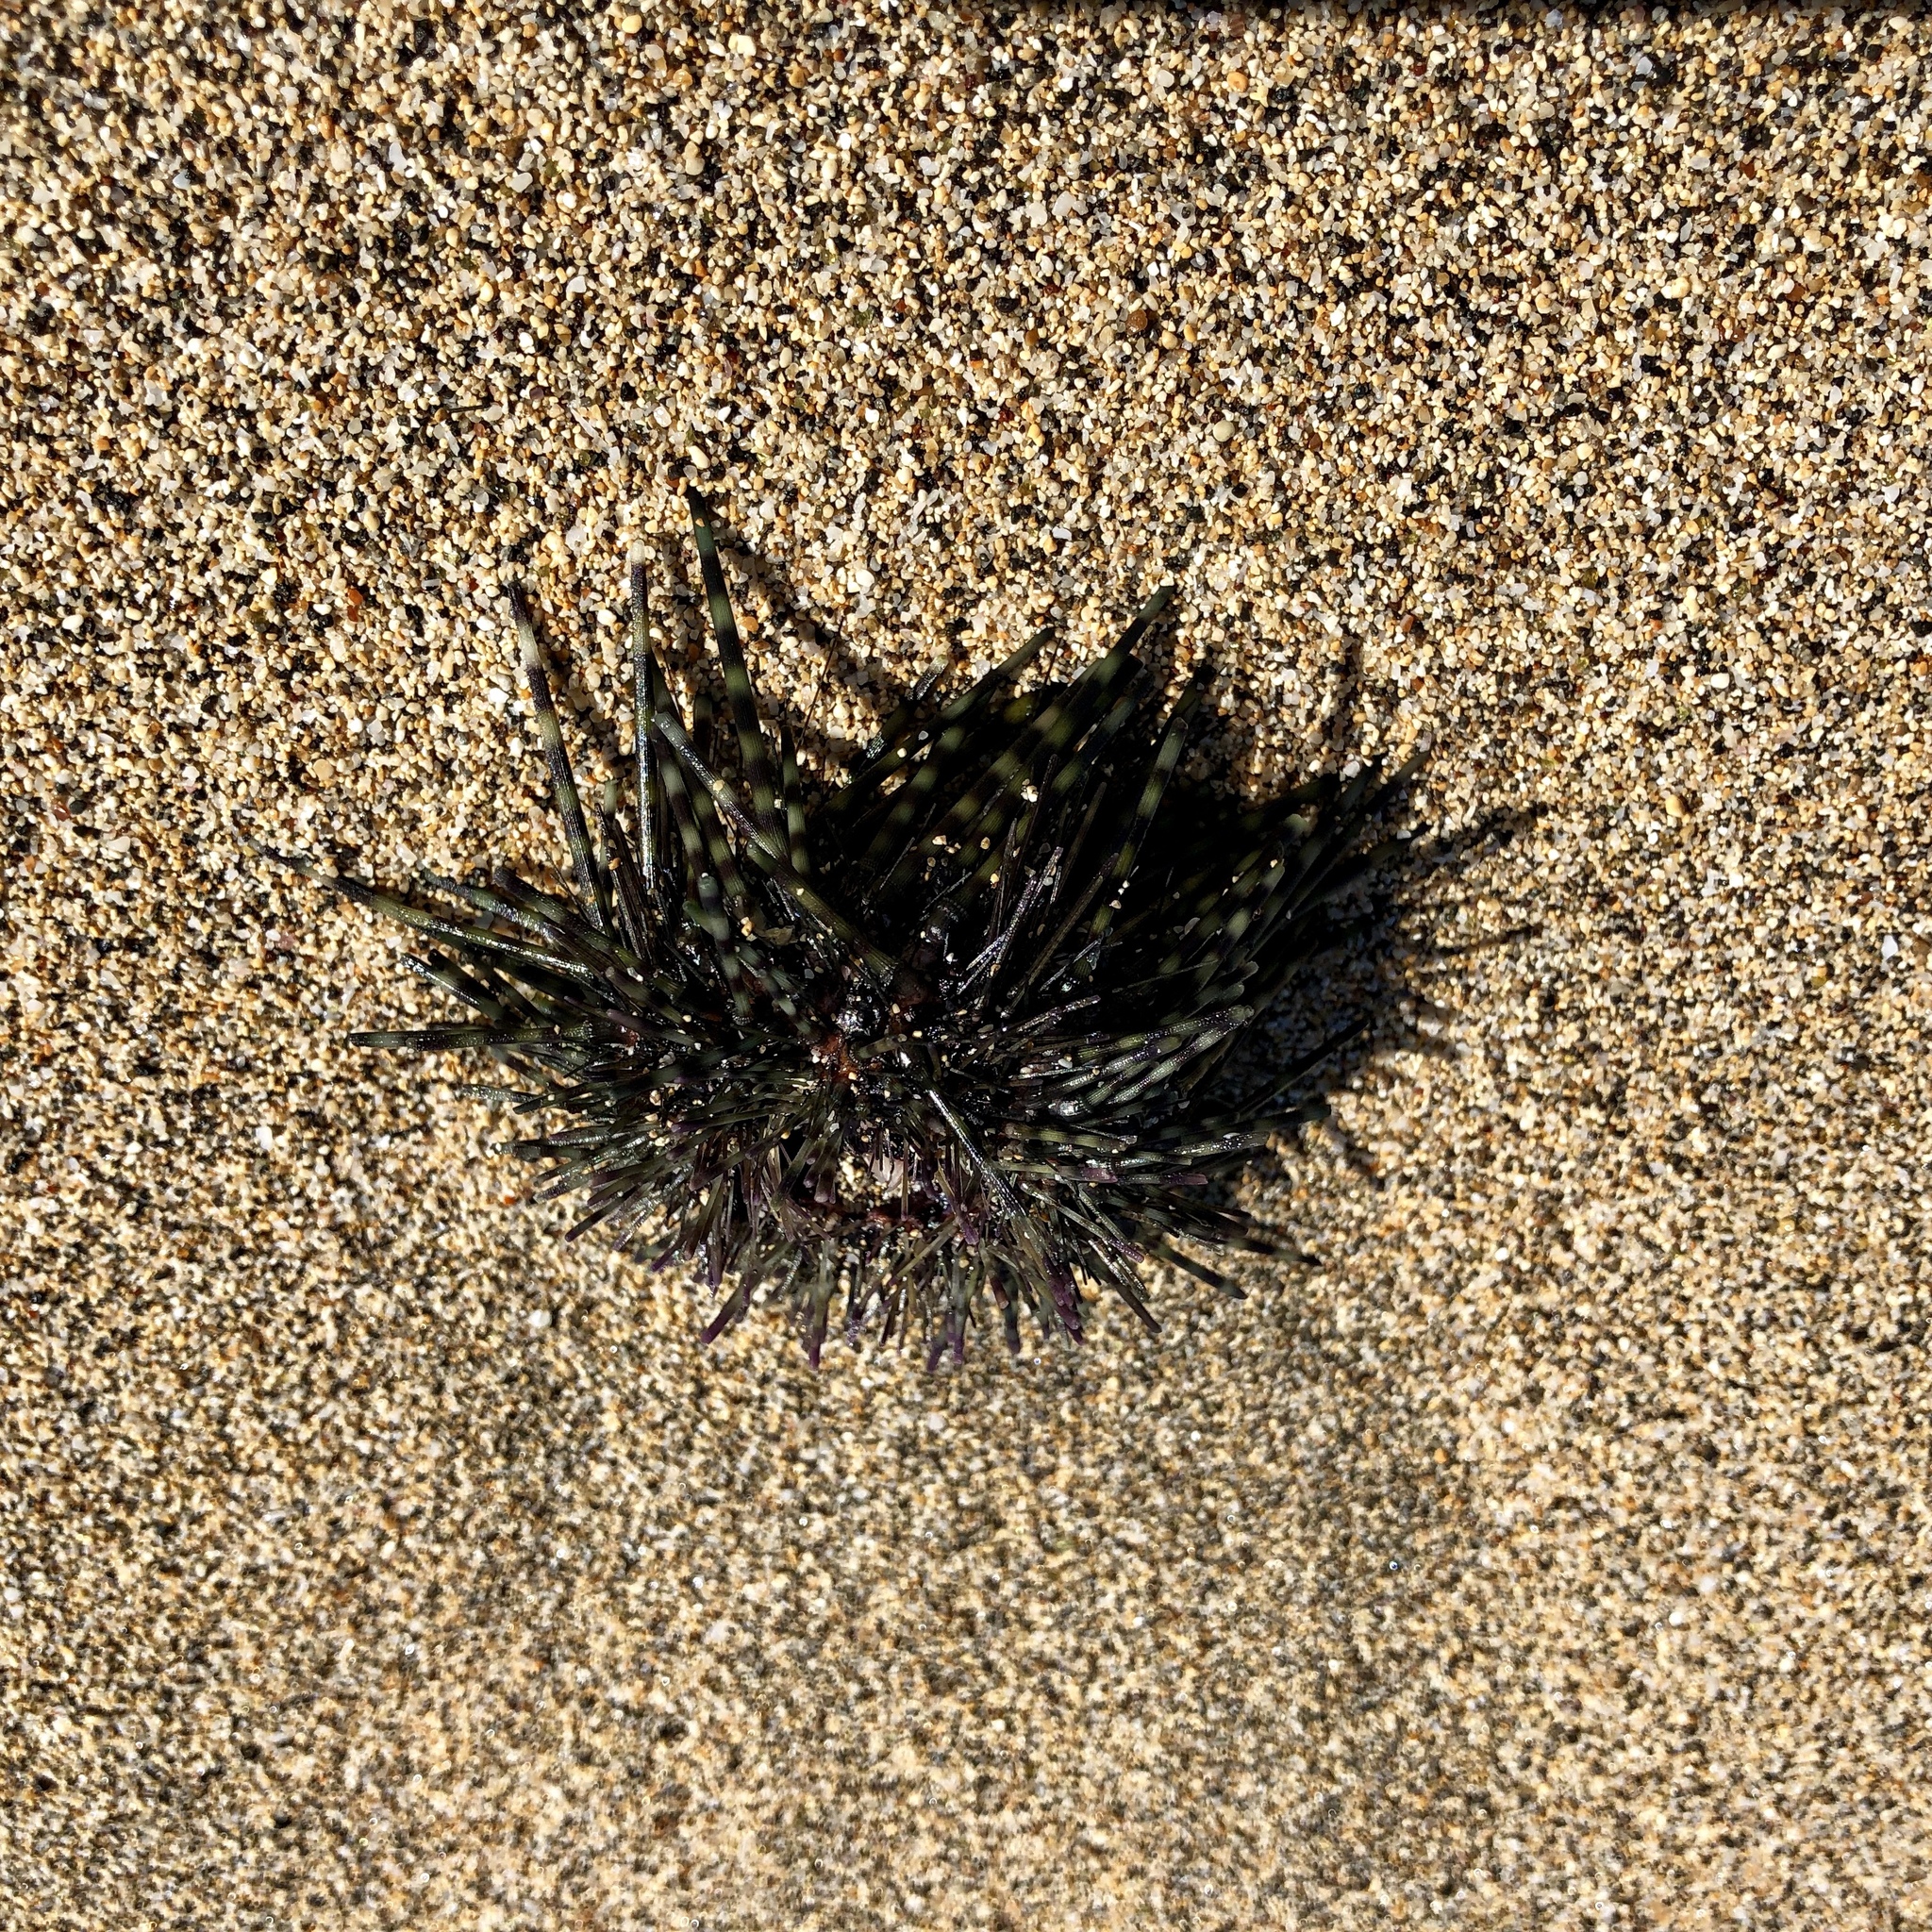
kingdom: Animalia
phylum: Echinodermata
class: Echinoidea
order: Diadematoida
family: Diadematidae
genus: Echinothrix
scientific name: Echinothrix calamaris
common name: Banded sea urchin
